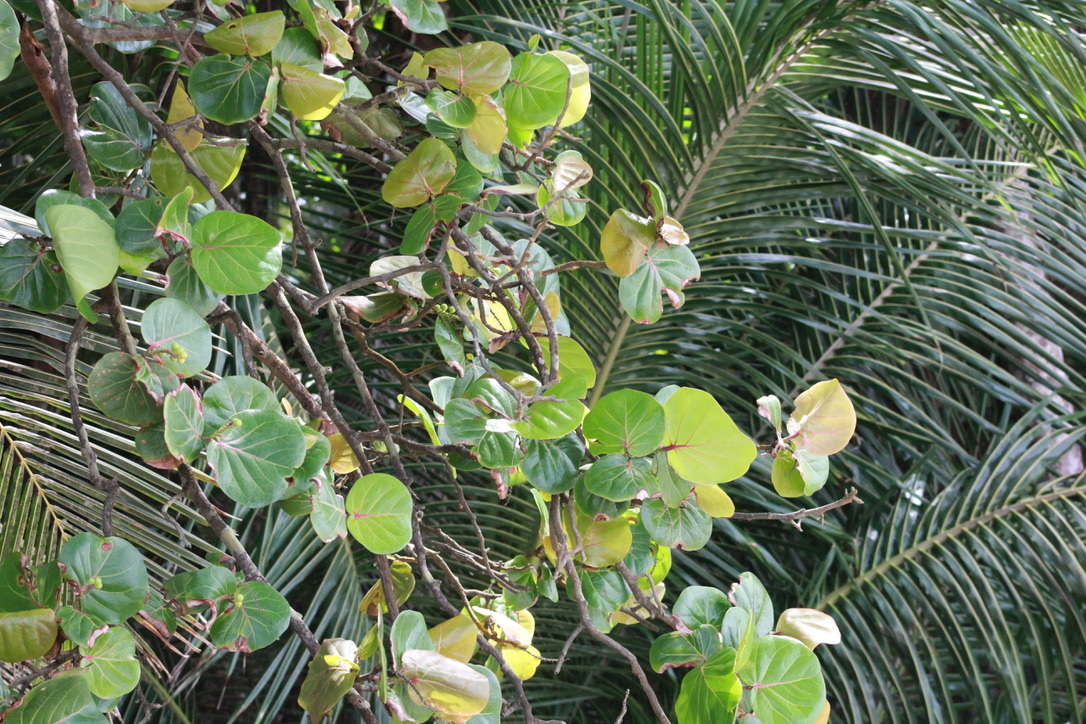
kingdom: Plantae
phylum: Tracheophyta
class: Magnoliopsida
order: Caryophyllales
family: Polygonaceae
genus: Coccoloba
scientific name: Coccoloba uvifera
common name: Seagrape
